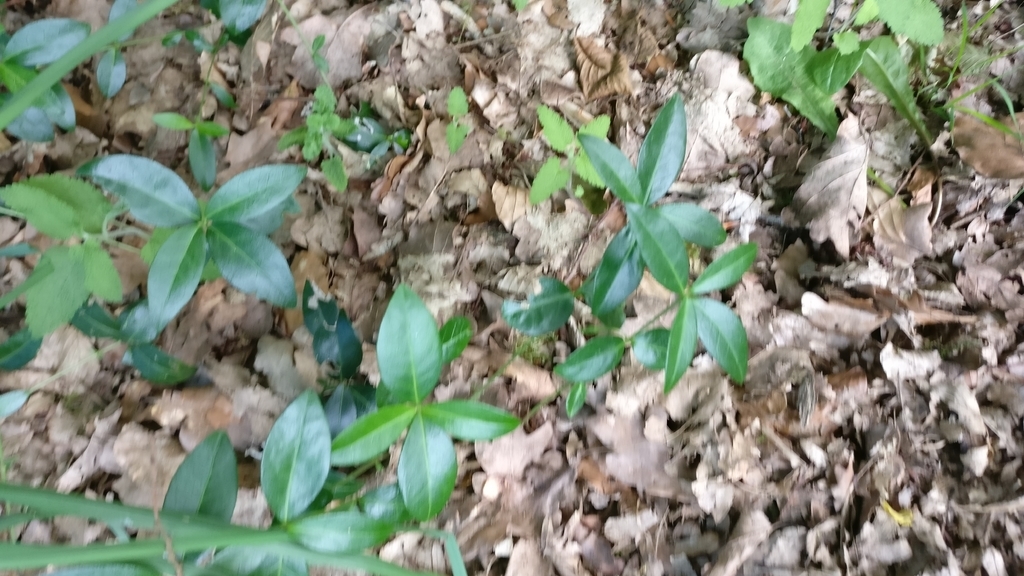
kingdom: Plantae
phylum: Tracheophyta
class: Magnoliopsida
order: Gentianales
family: Apocynaceae
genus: Vinca
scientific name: Vinca minor
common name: Lesser periwinkle
